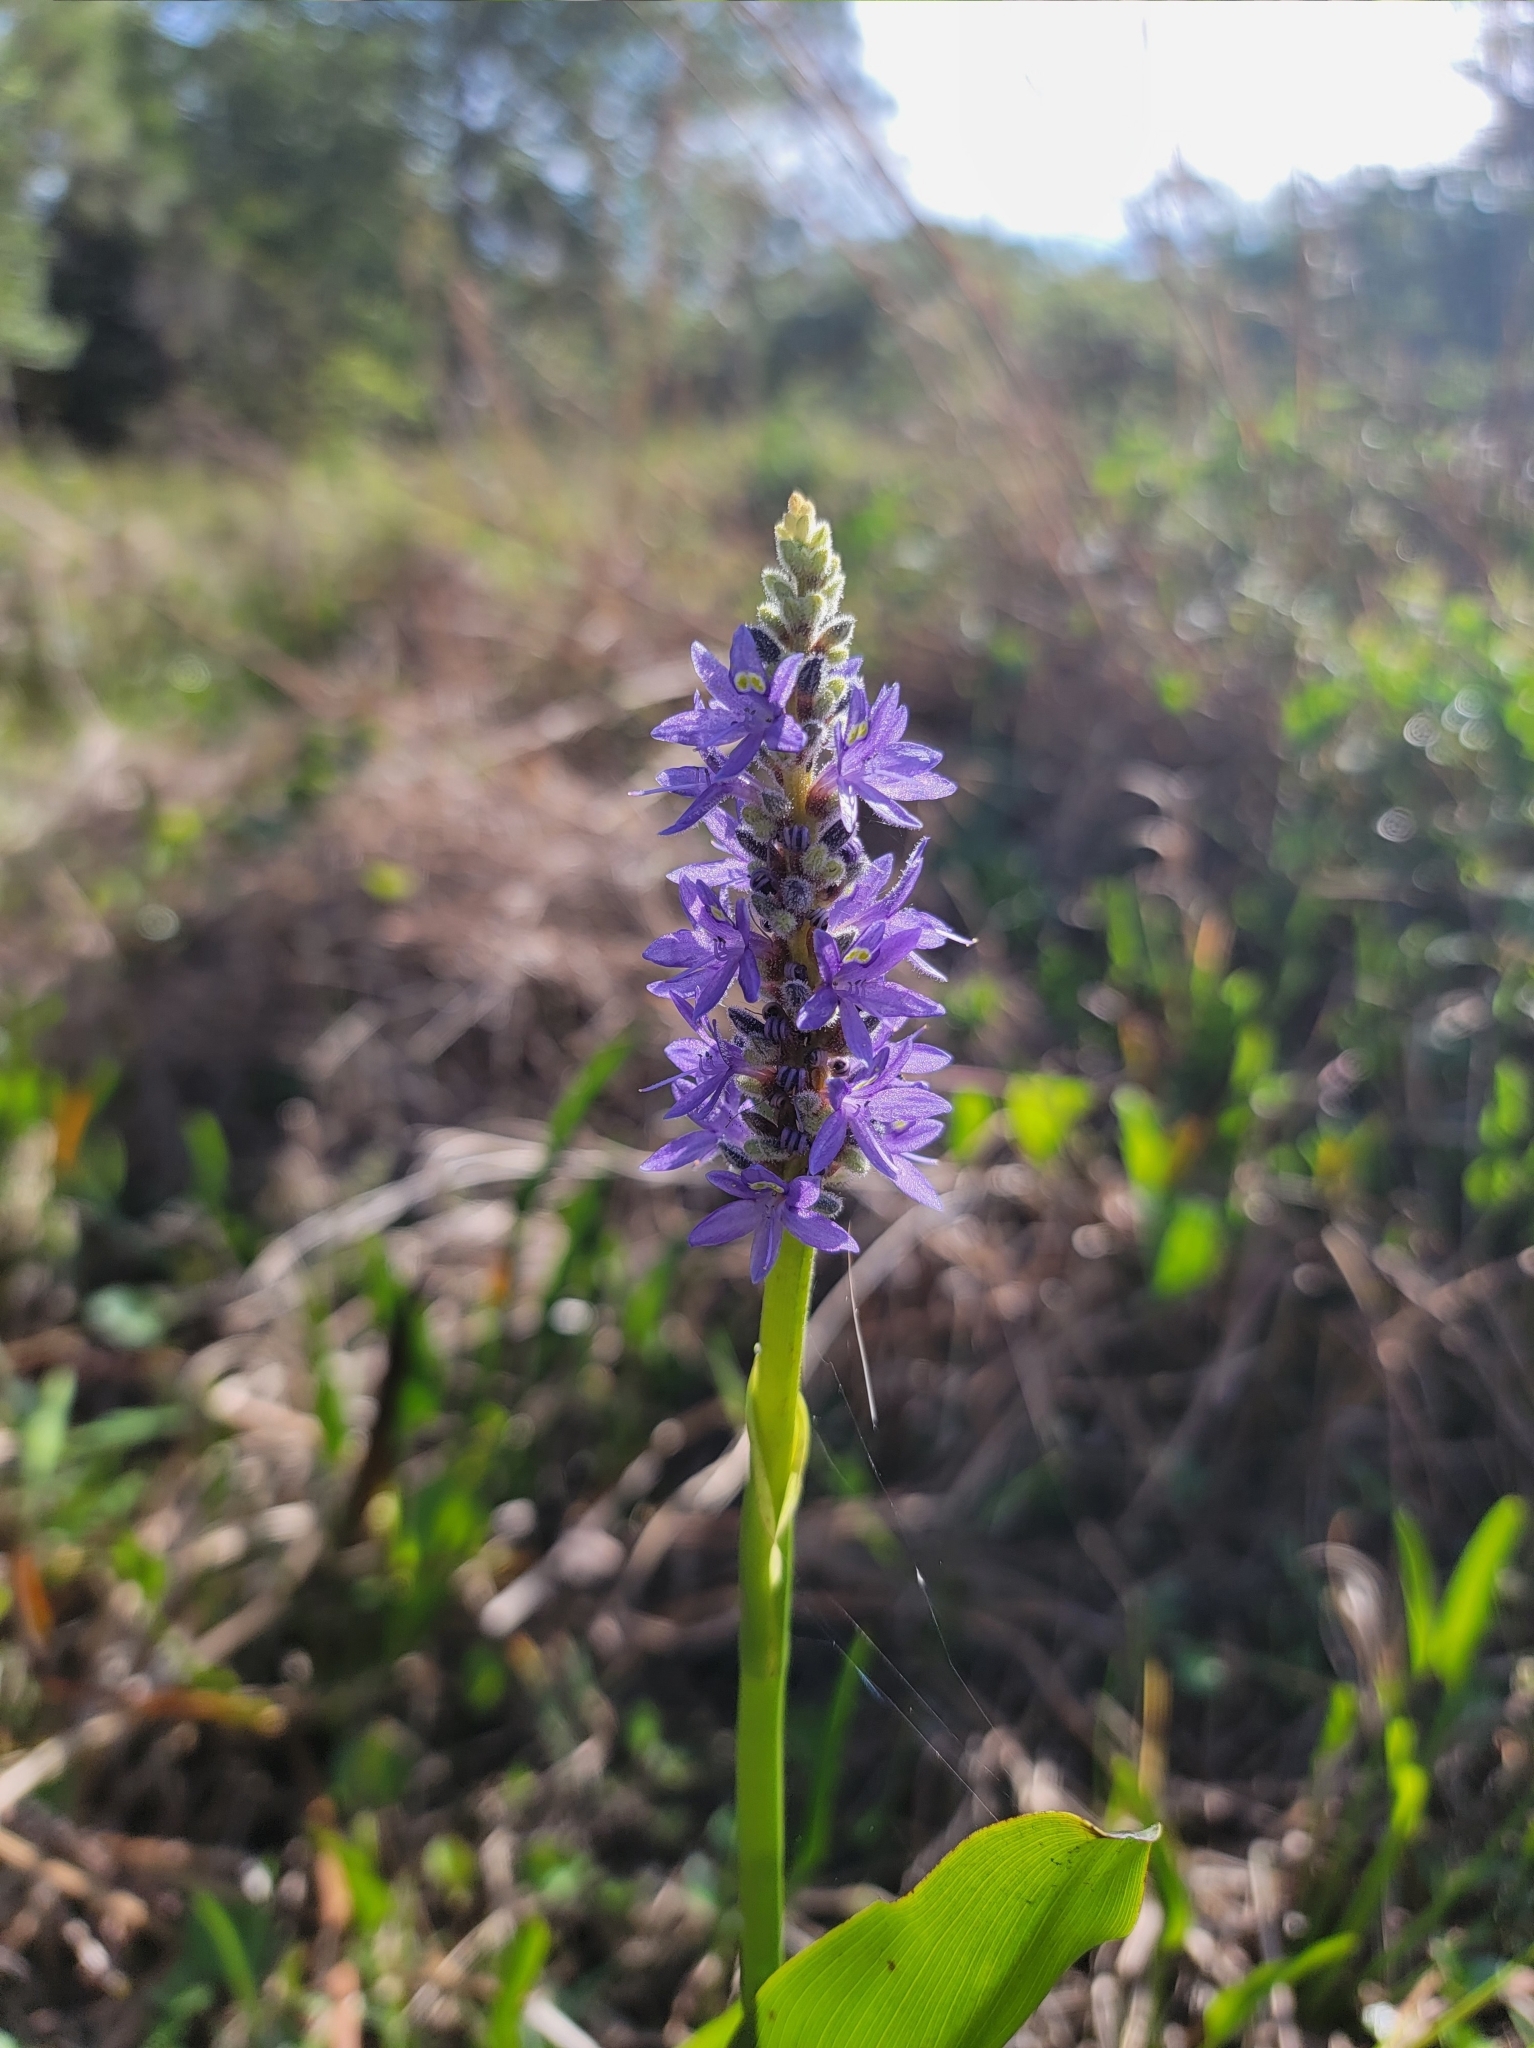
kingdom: Plantae
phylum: Tracheophyta
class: Liliopsida
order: Commelinales
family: Pontederiaceae
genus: Pontederia
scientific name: Pontederia cordata
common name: Pickerelweed
